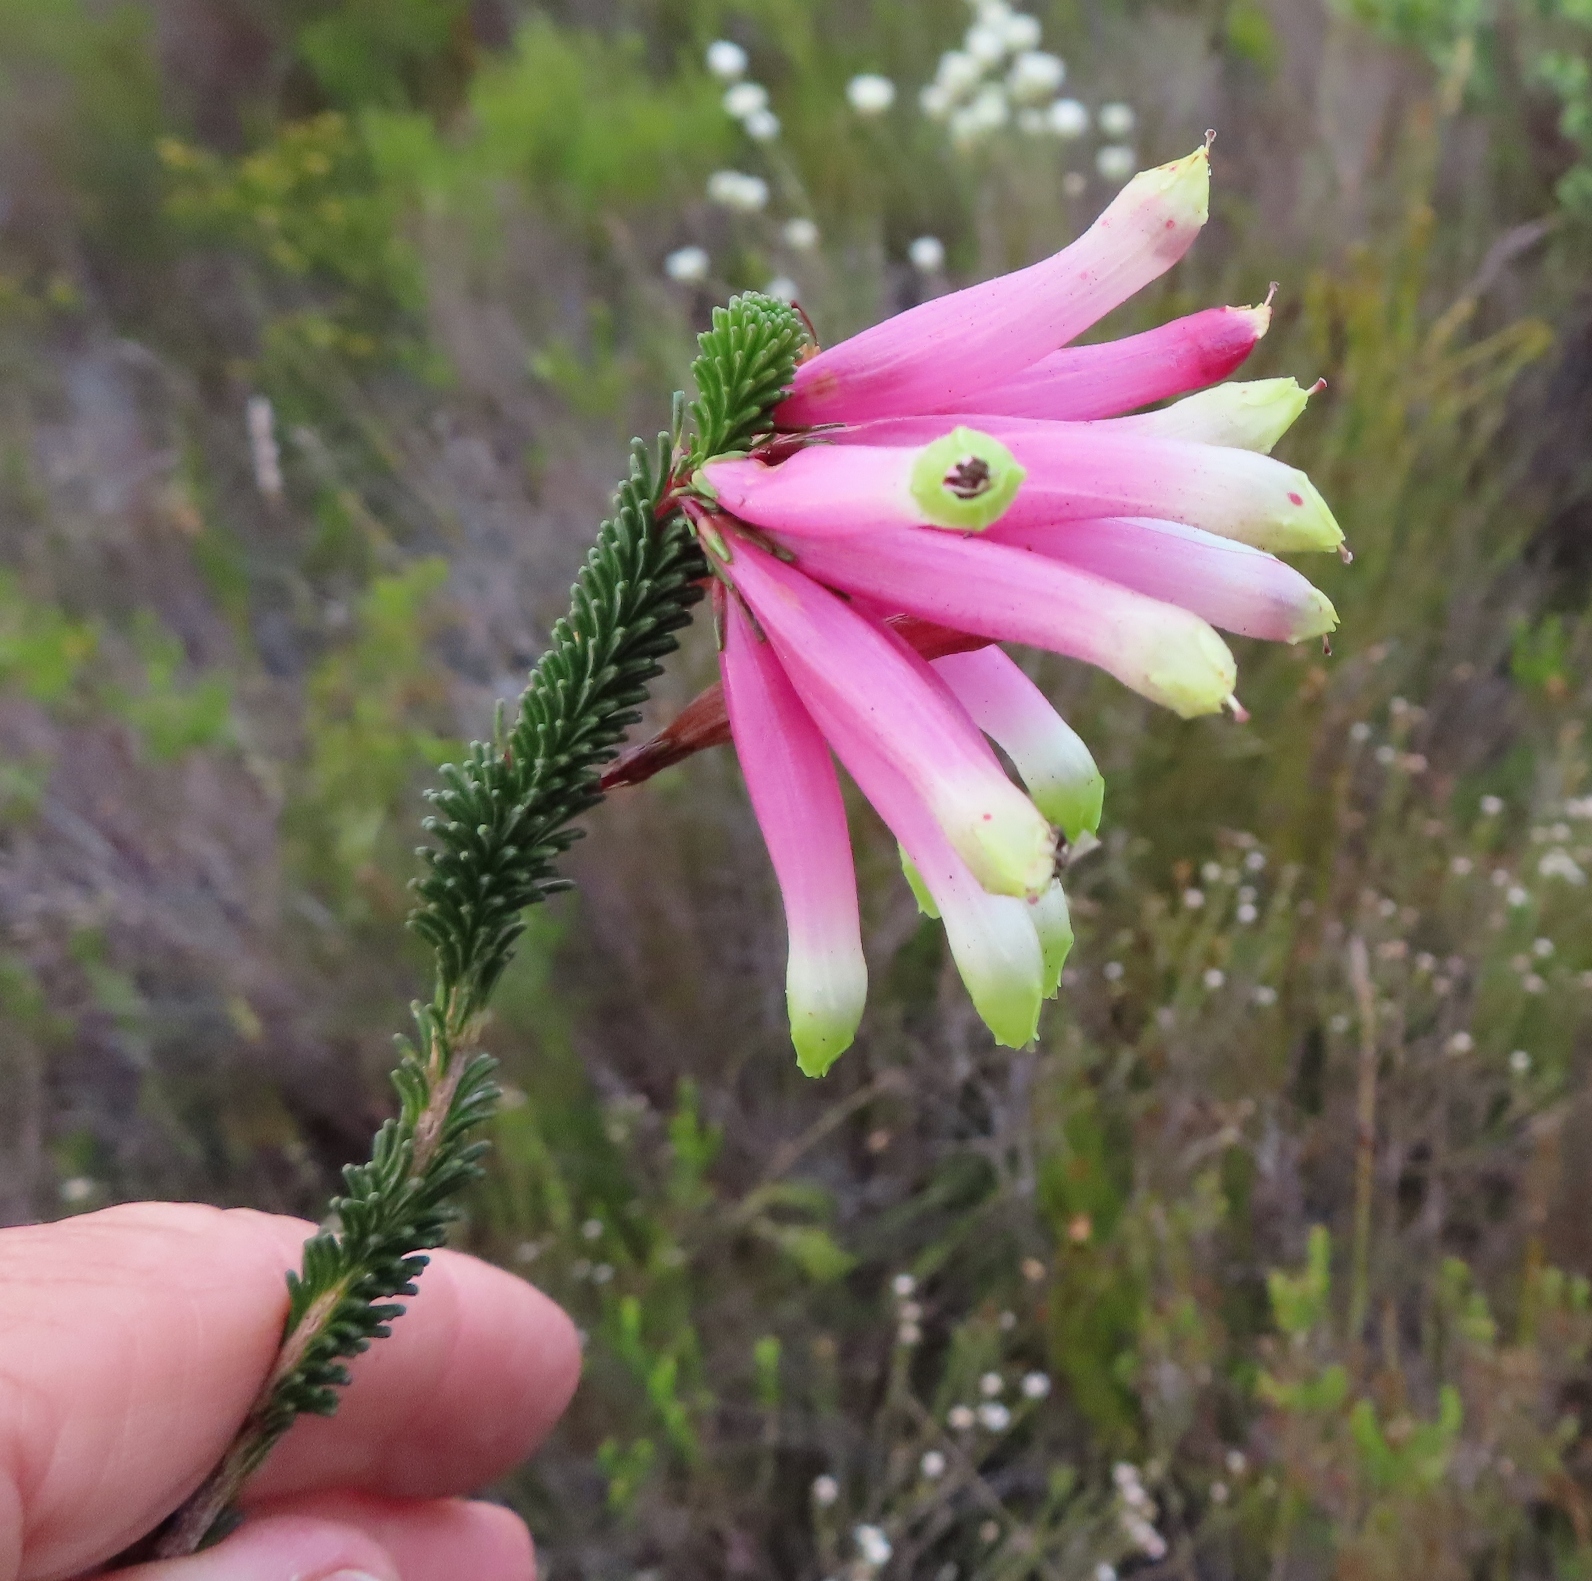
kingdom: Plantae
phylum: Tracheophyta
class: Magnoliopsida
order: Ericales
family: Ericaceae
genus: Erica
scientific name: Erica fascicularis
